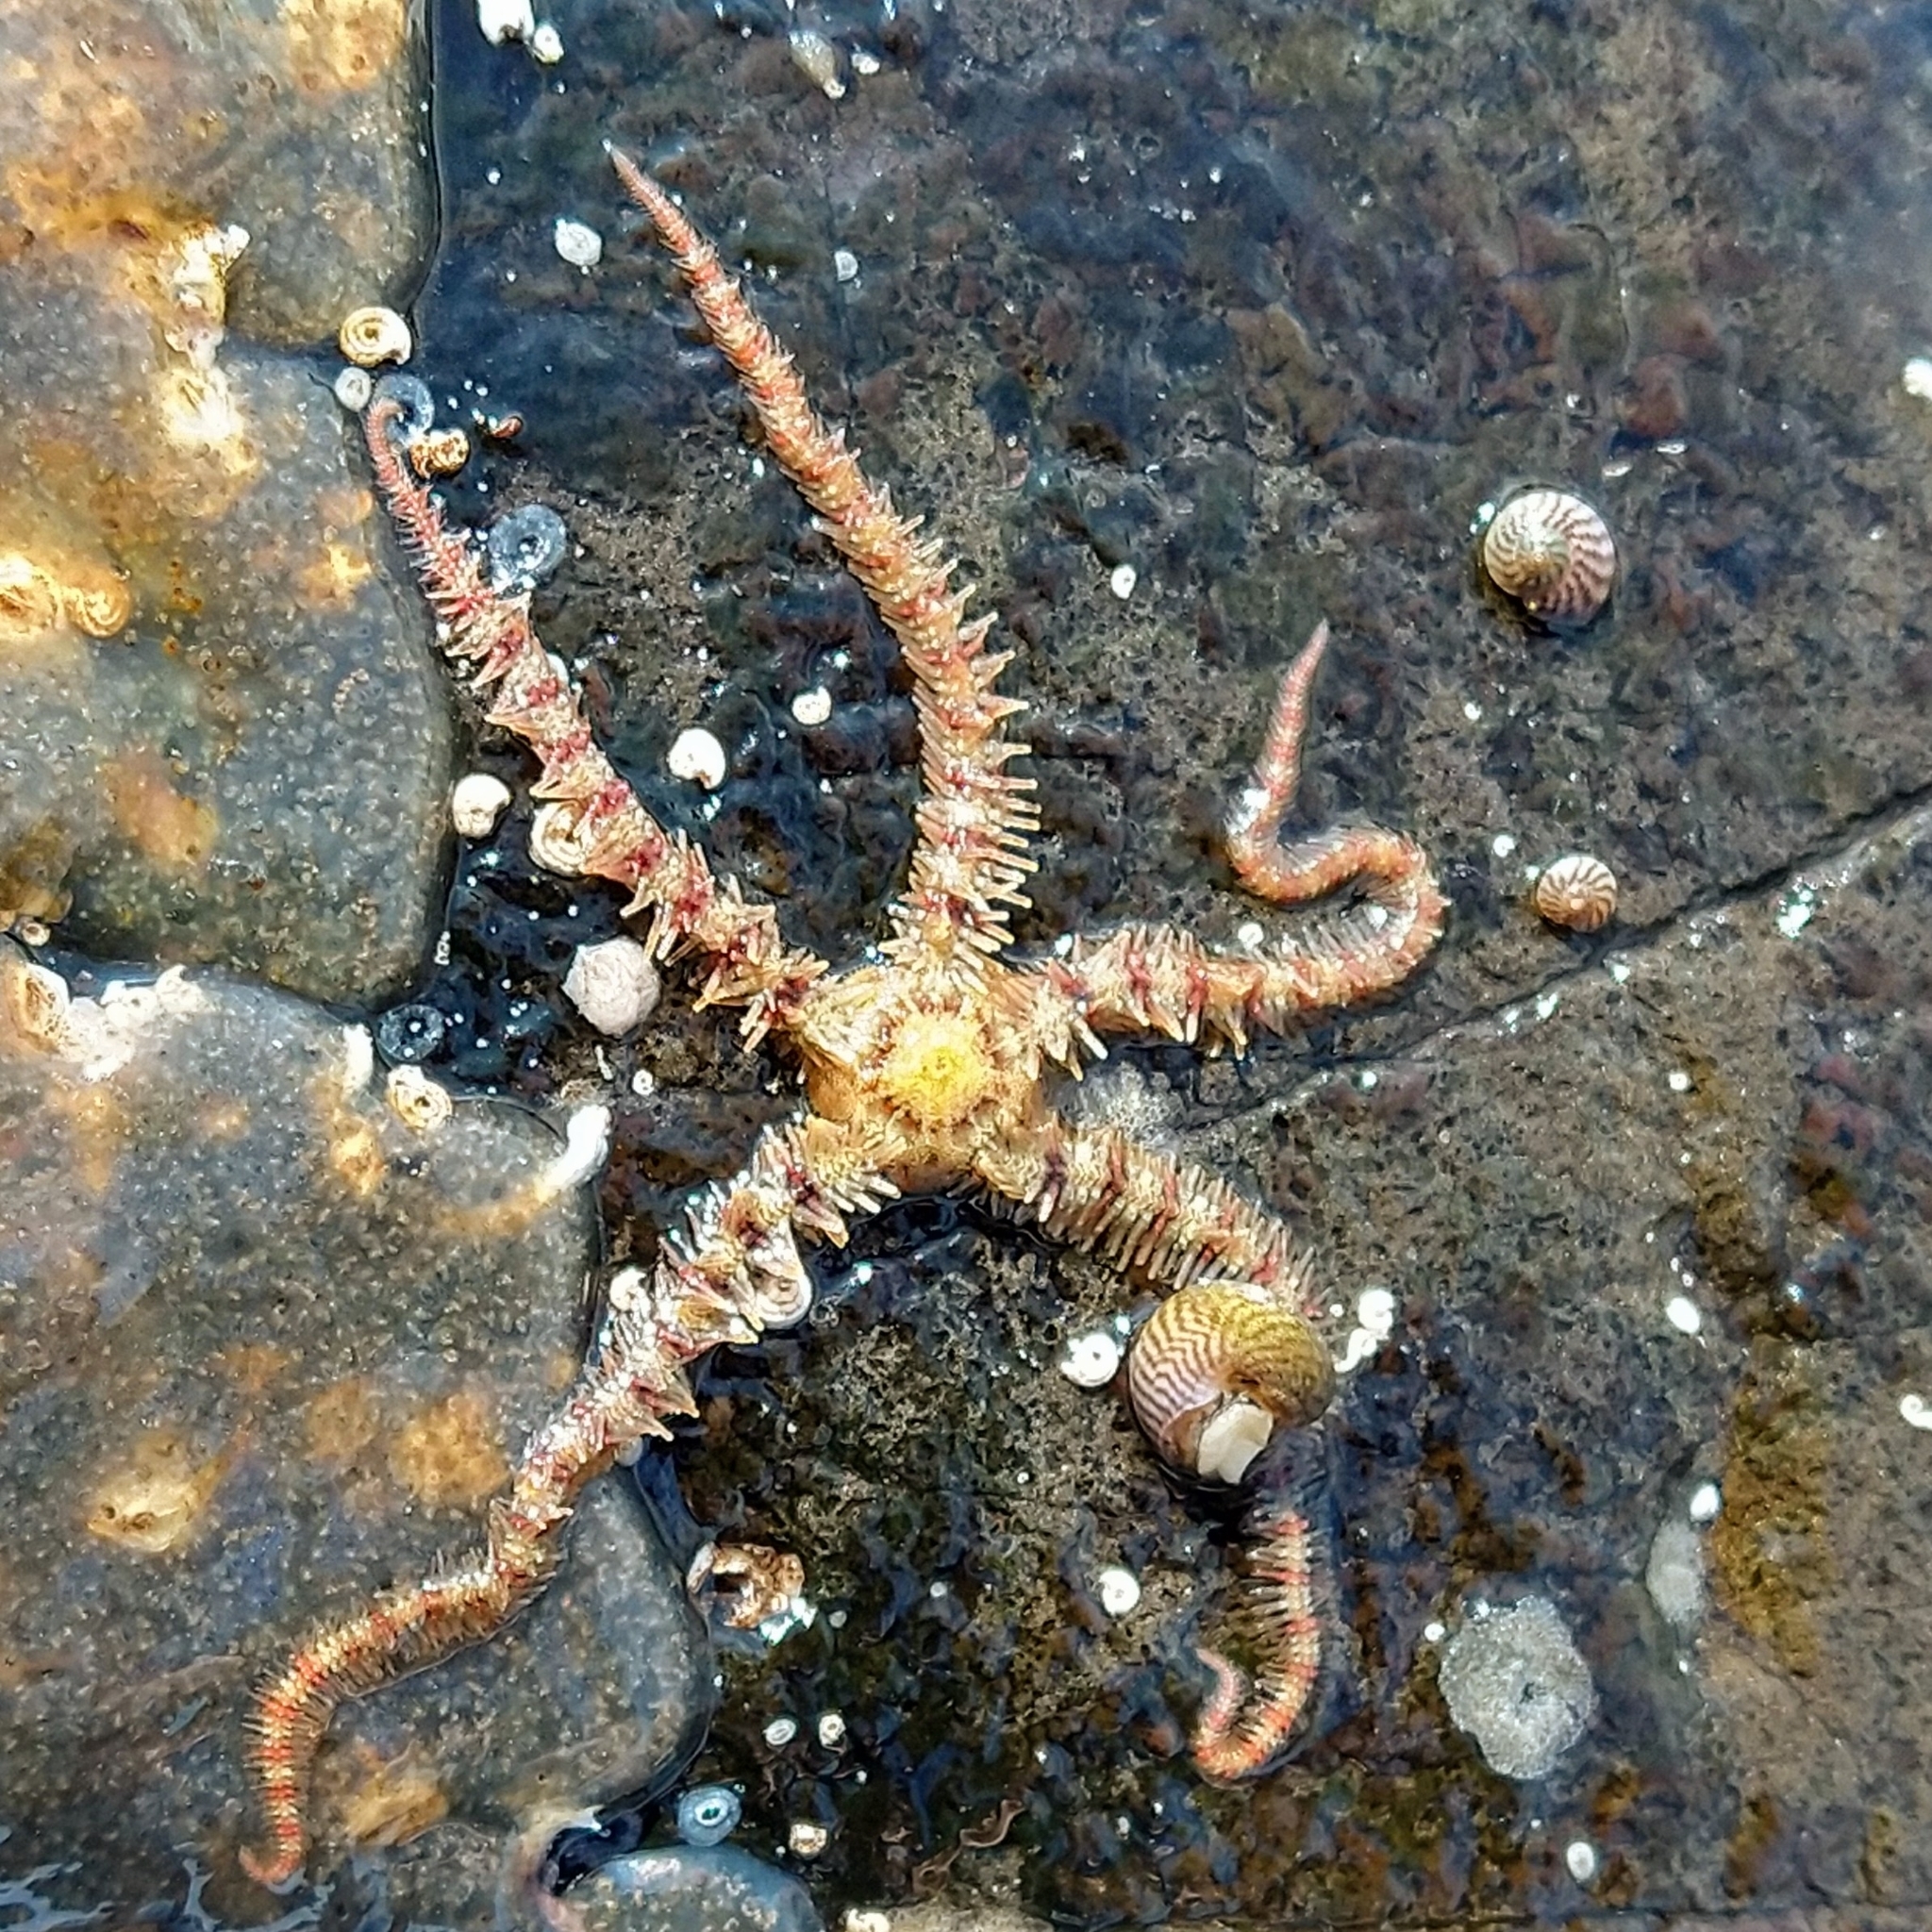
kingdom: Animalia
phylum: Echinodermata
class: Ophiuroidea
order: Amphilepidida
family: Ophiotrichidae
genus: Ophiothrix
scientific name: Ophiothrix fragilis
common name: Common brittlestar
